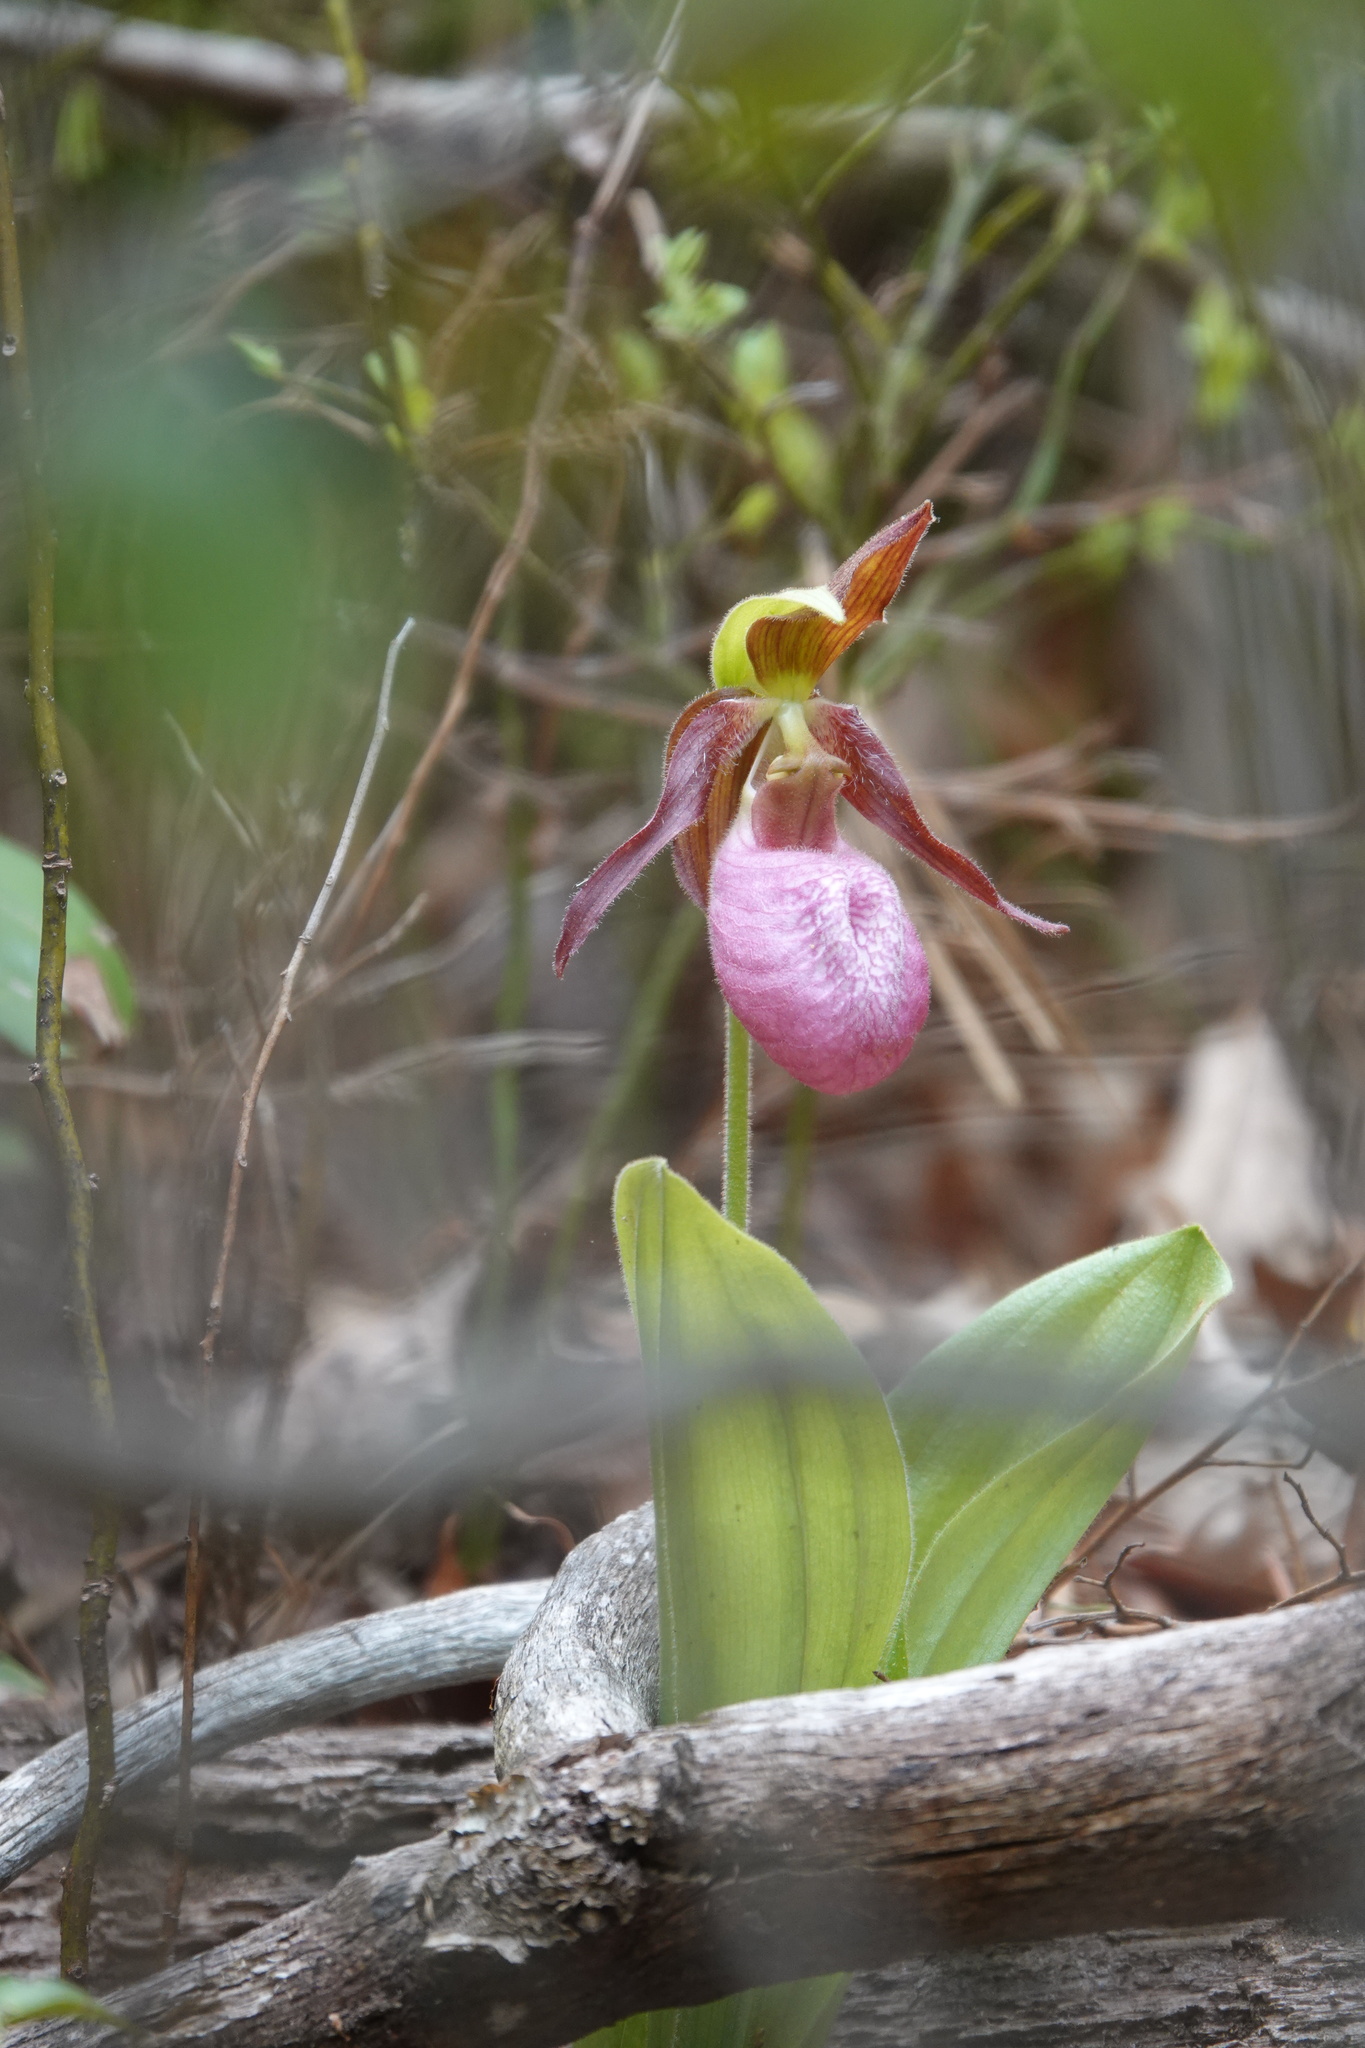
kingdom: Plantae
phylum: Tracheophyta
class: Liliopsida
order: Asparagales
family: Orchidaceae
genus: Cypripedium
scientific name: Cypripedium acaule
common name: Pink lady's-slipper
